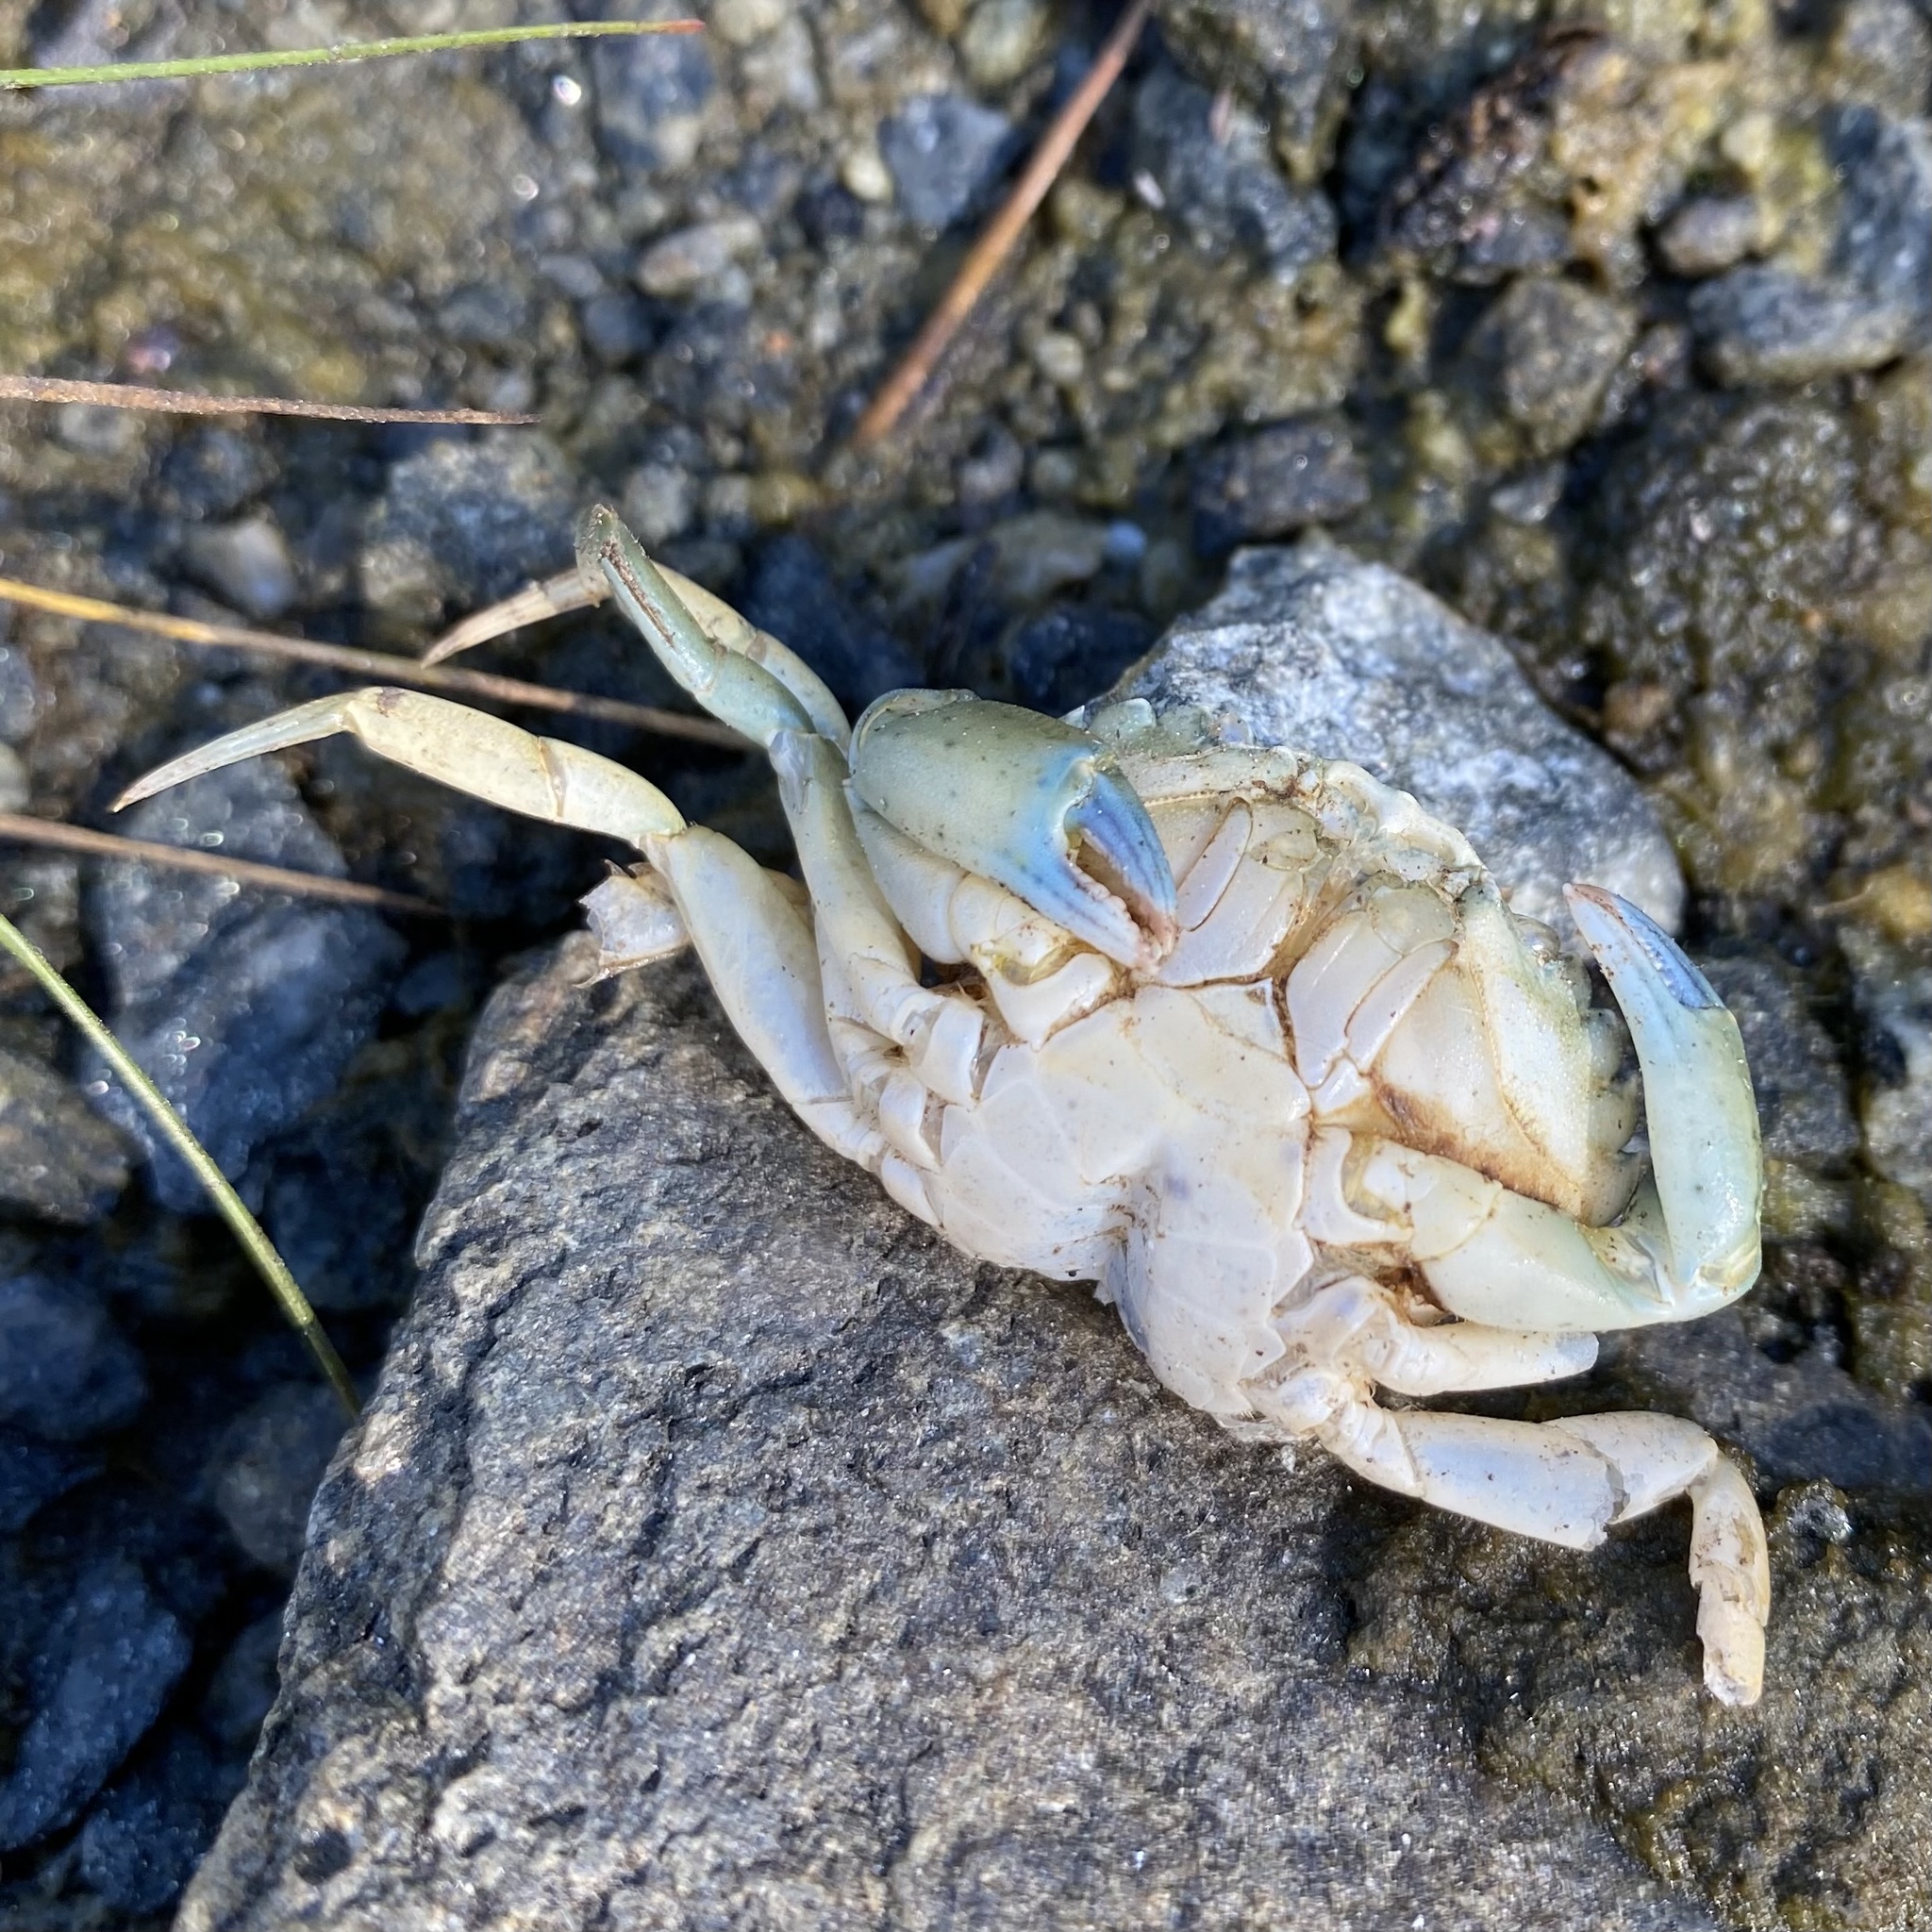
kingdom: Animalia
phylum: Arthropoda
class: Malacostraca
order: Decapoda
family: Carcinidae
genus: Carcinus
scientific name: Carcinus maenas
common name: European green crab
